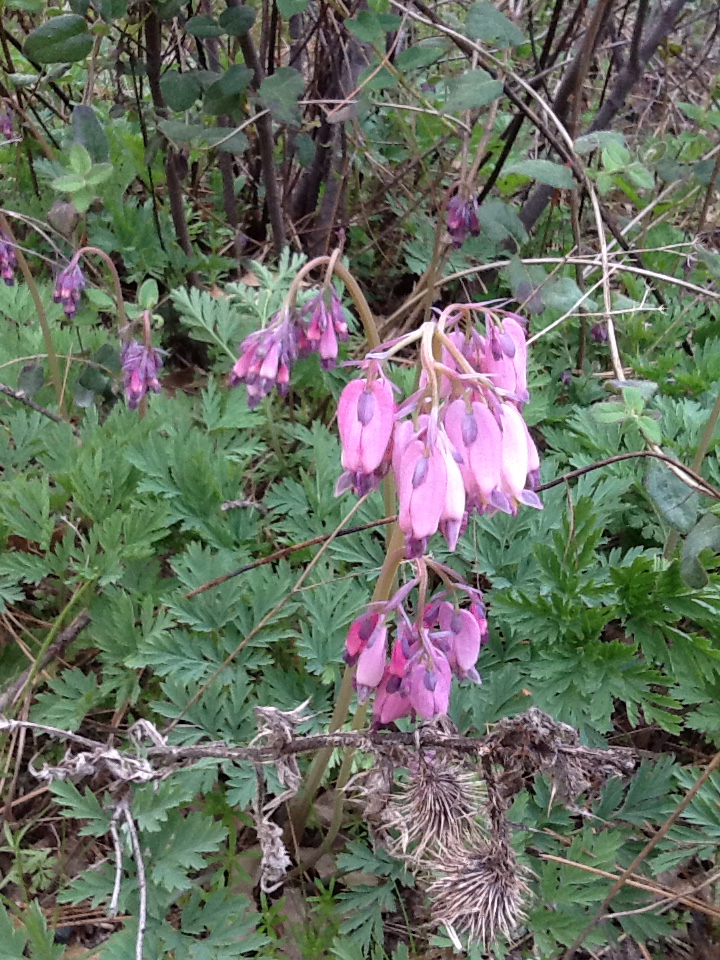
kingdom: Plantae
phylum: Tracheophyta
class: Magnoliopsida
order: Ranunculales
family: Papaveraceae
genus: Dicentra
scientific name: Dicentra formosa
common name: Bleeding-heart
